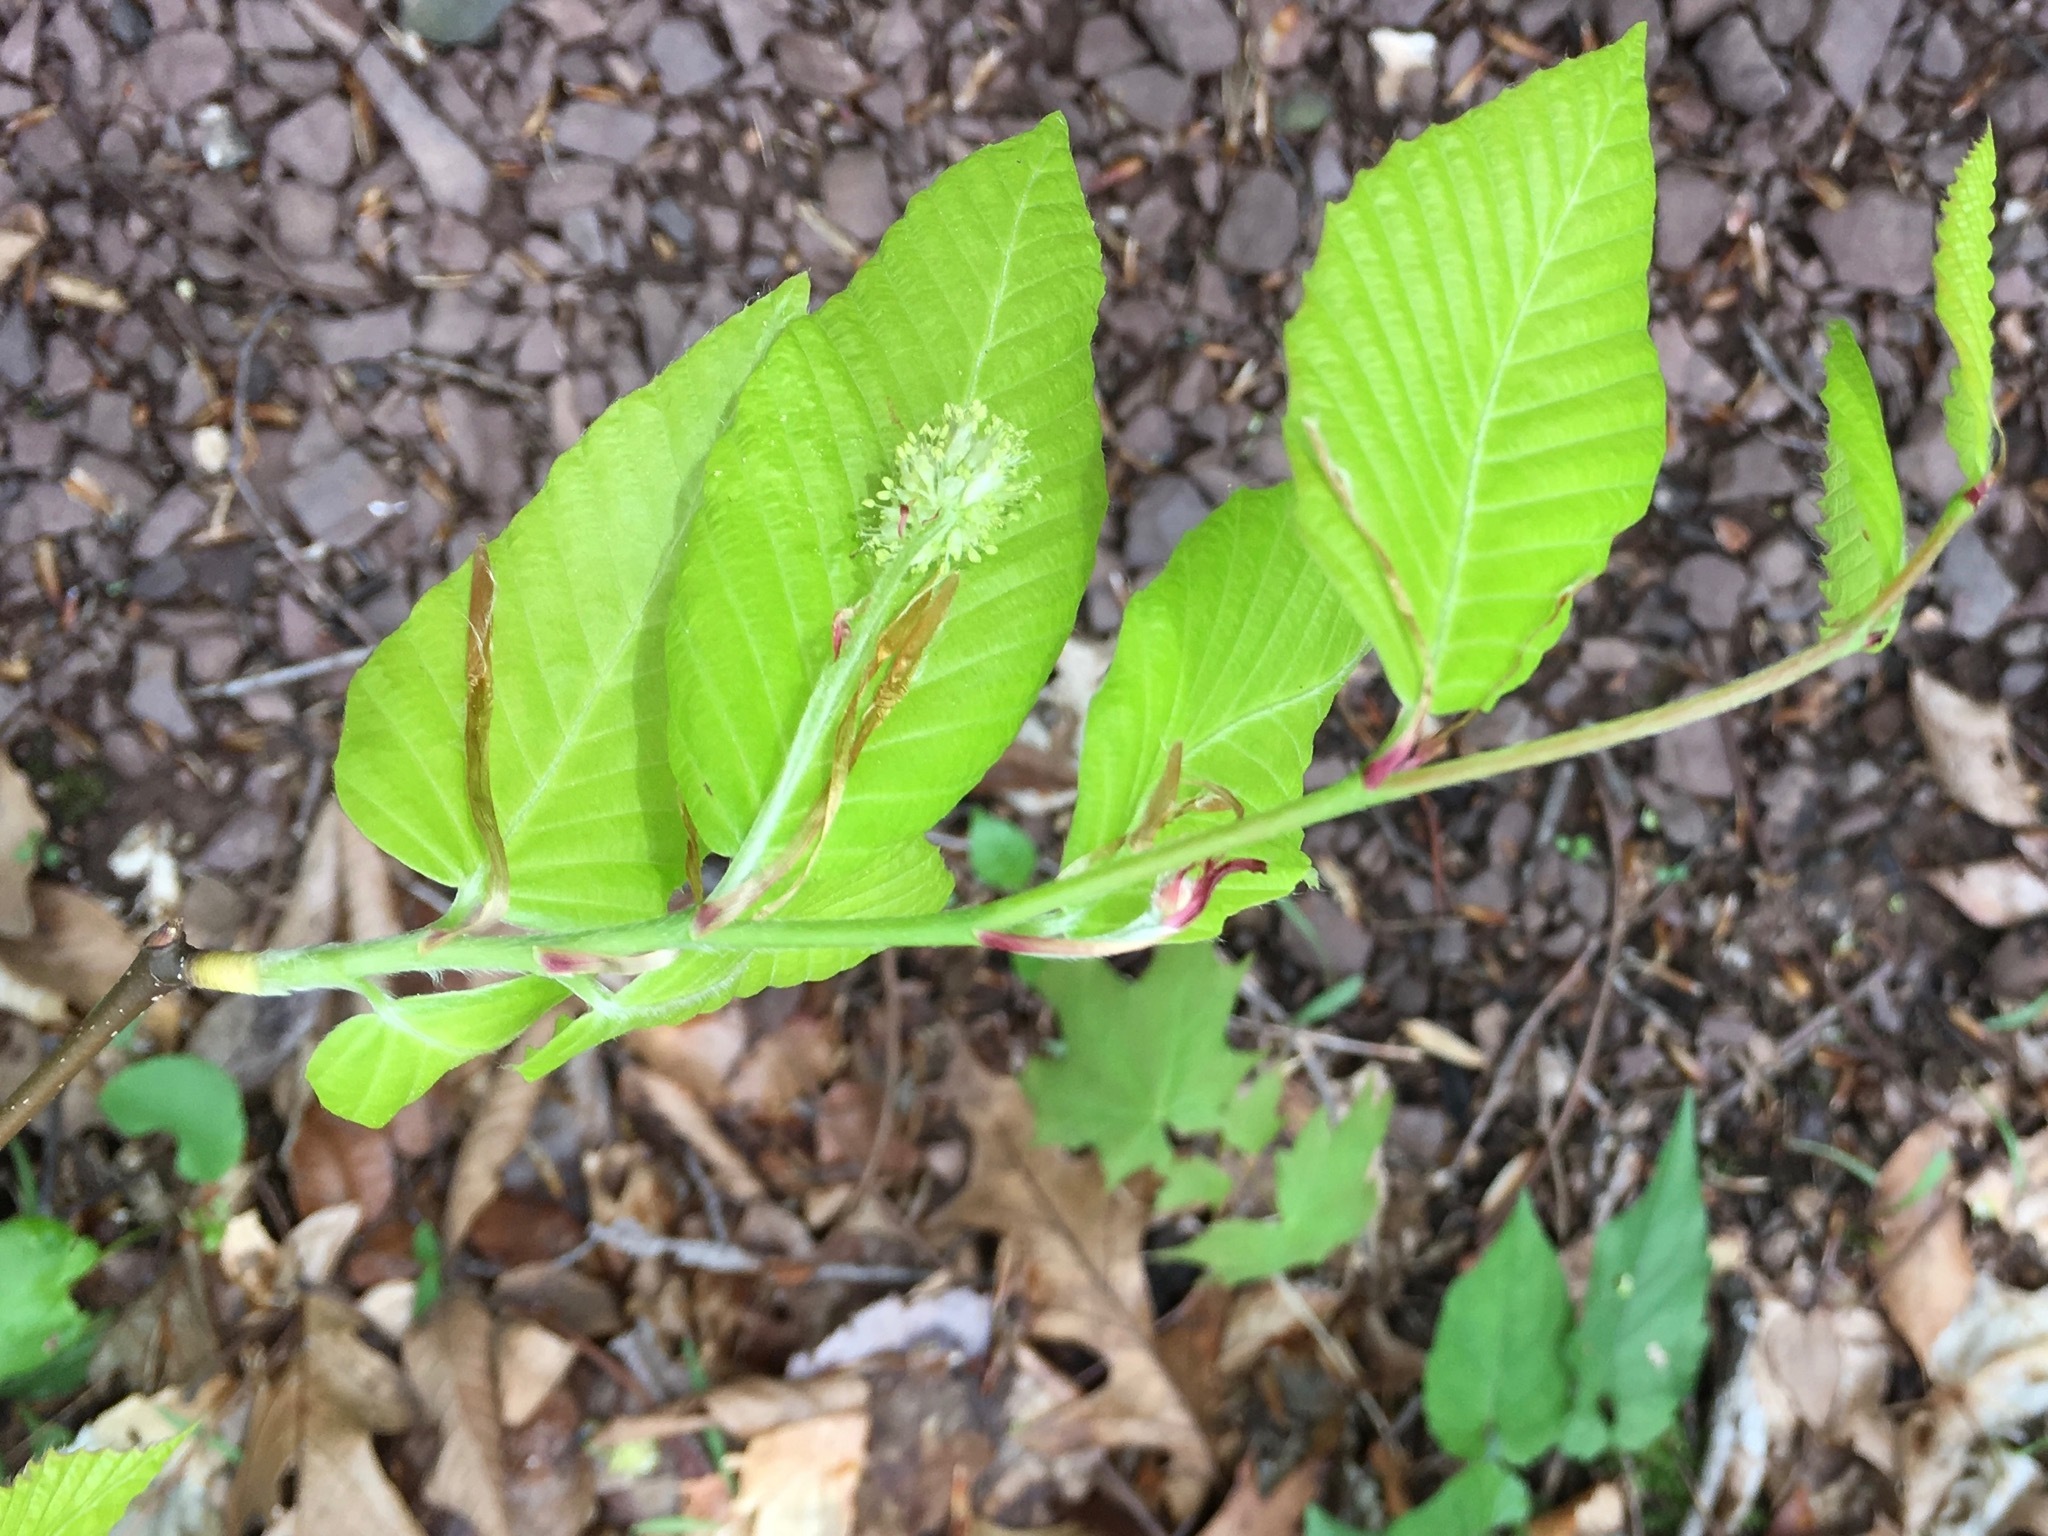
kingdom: Plantae
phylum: Tracheophyta
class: Magnoliopsida
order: Fagales
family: Fagaceae
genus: Fagus
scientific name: Fagus grandifolia
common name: American beech
